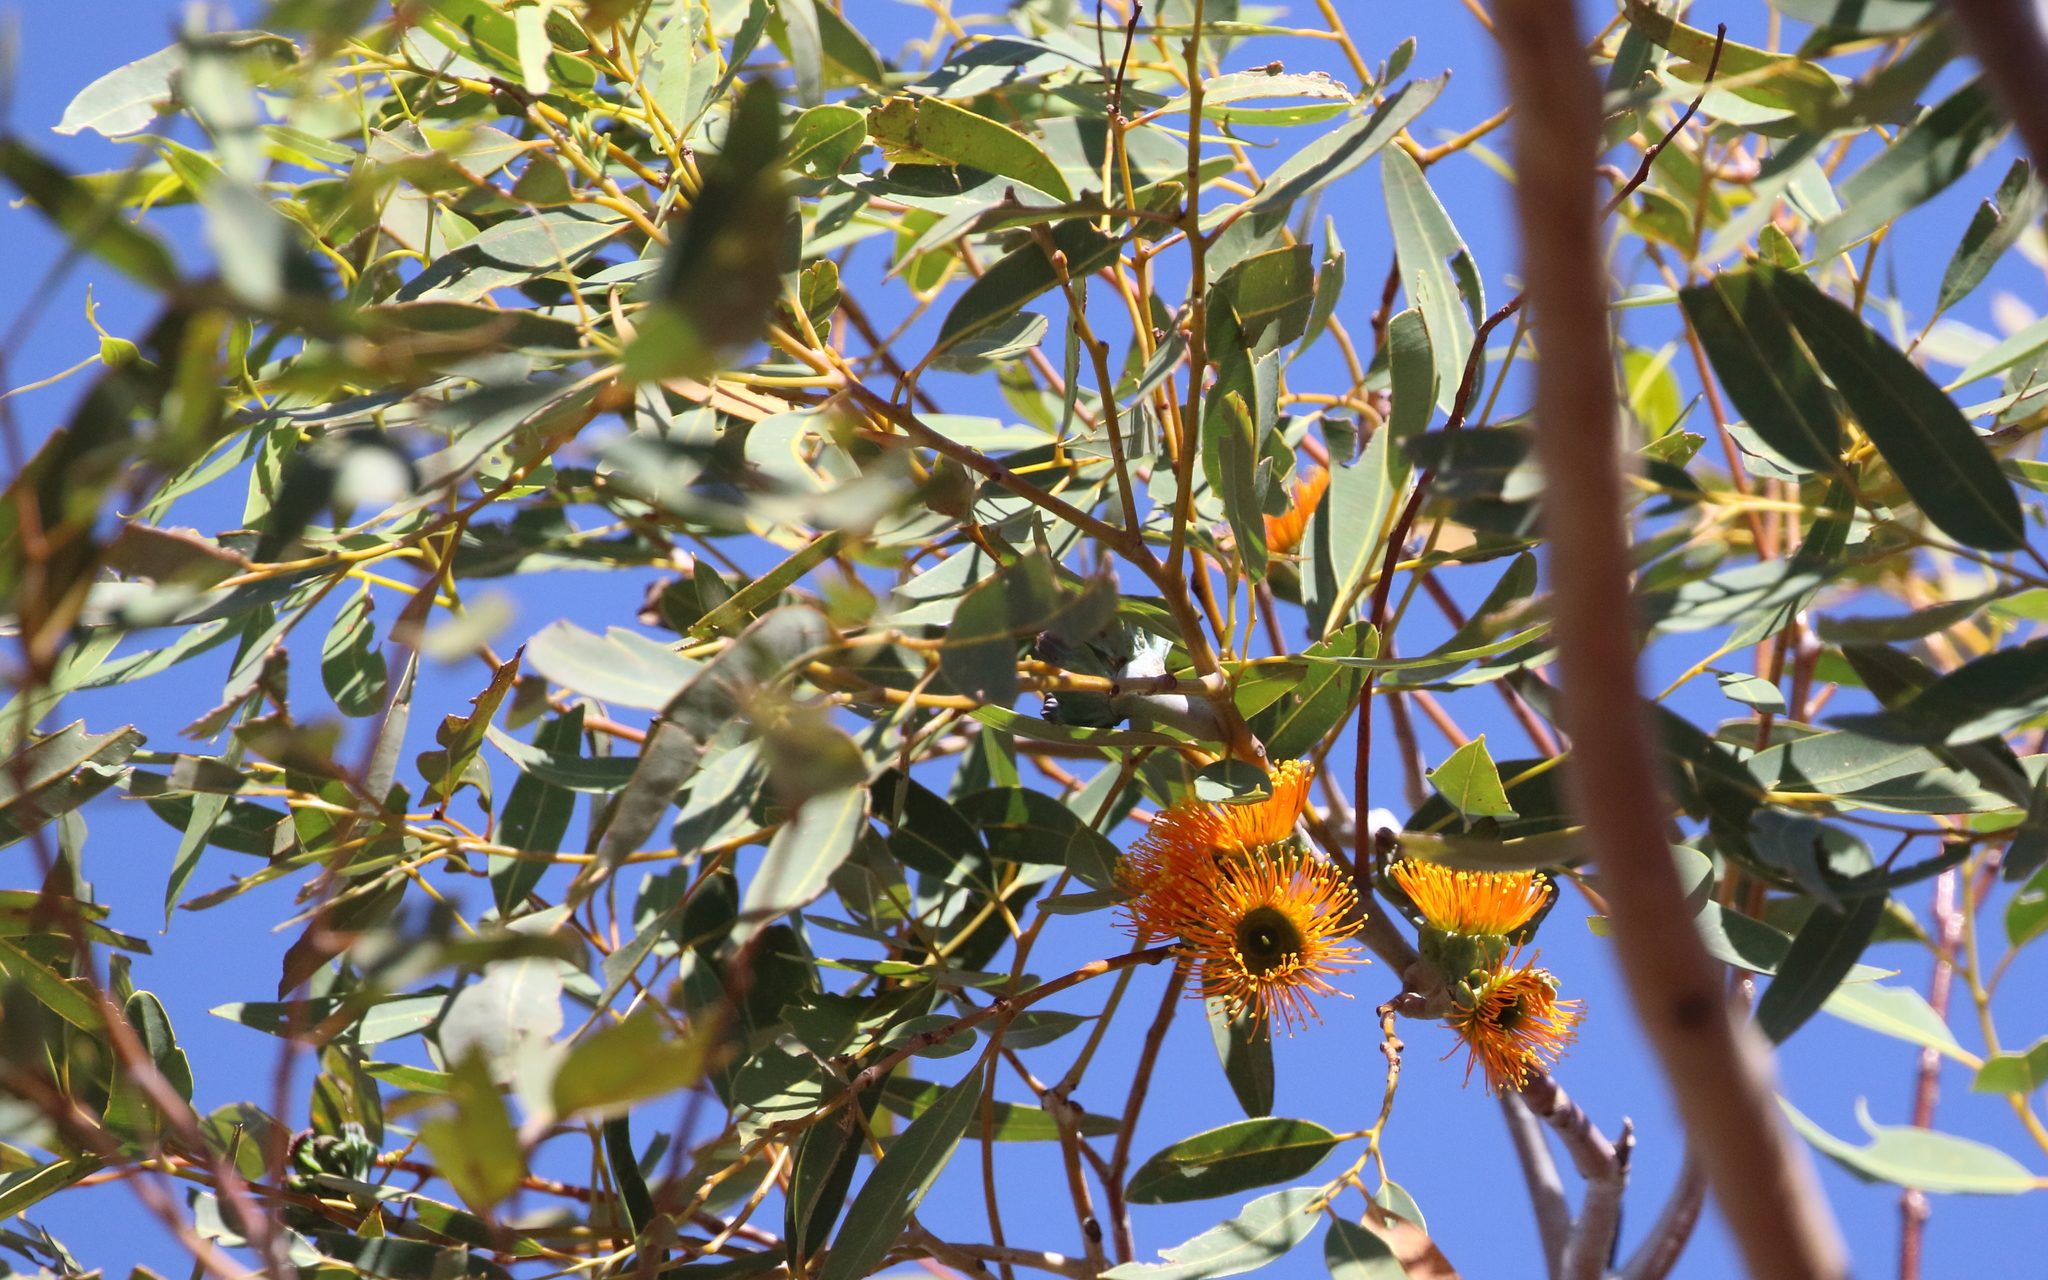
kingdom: Plantae
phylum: Tracheophyta
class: Magnoliopsida
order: Myrtales
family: Myrtaceae
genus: Eucalyptus
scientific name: Eucalyptus miniata
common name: Darwin-woollybutt
